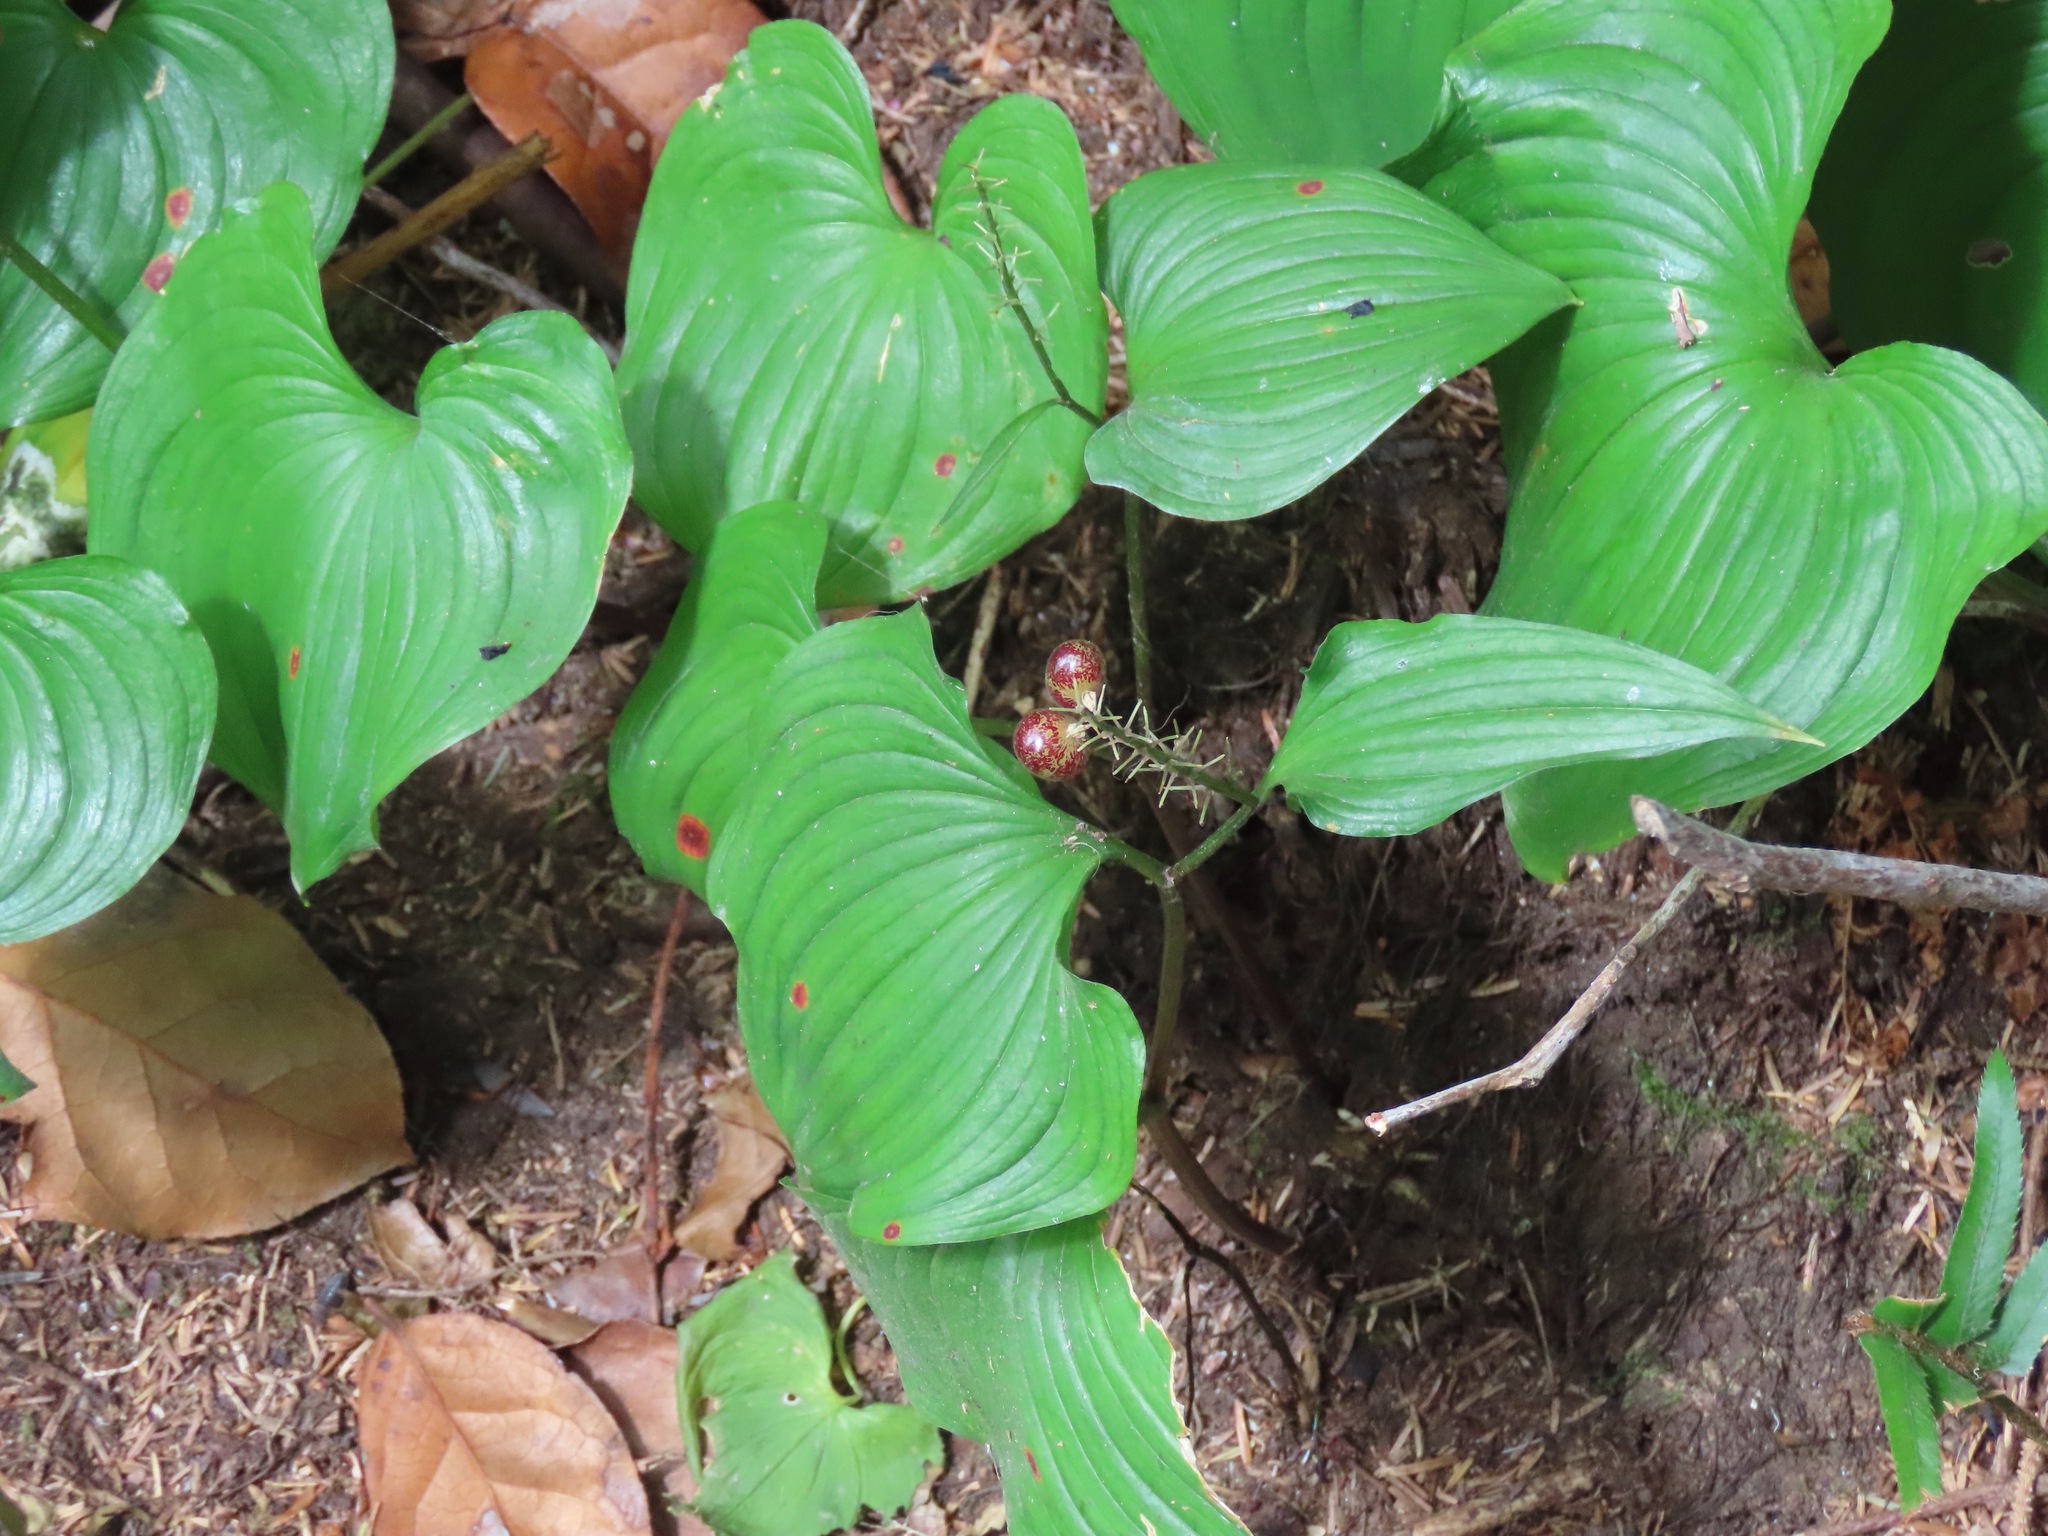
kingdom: Plantae
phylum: Tracheophyta
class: Liliopsida
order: Asparagales
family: Asparagaceae
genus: Maianthemum
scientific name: Maianthemum dilatatum
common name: False lily-of-the-valley
